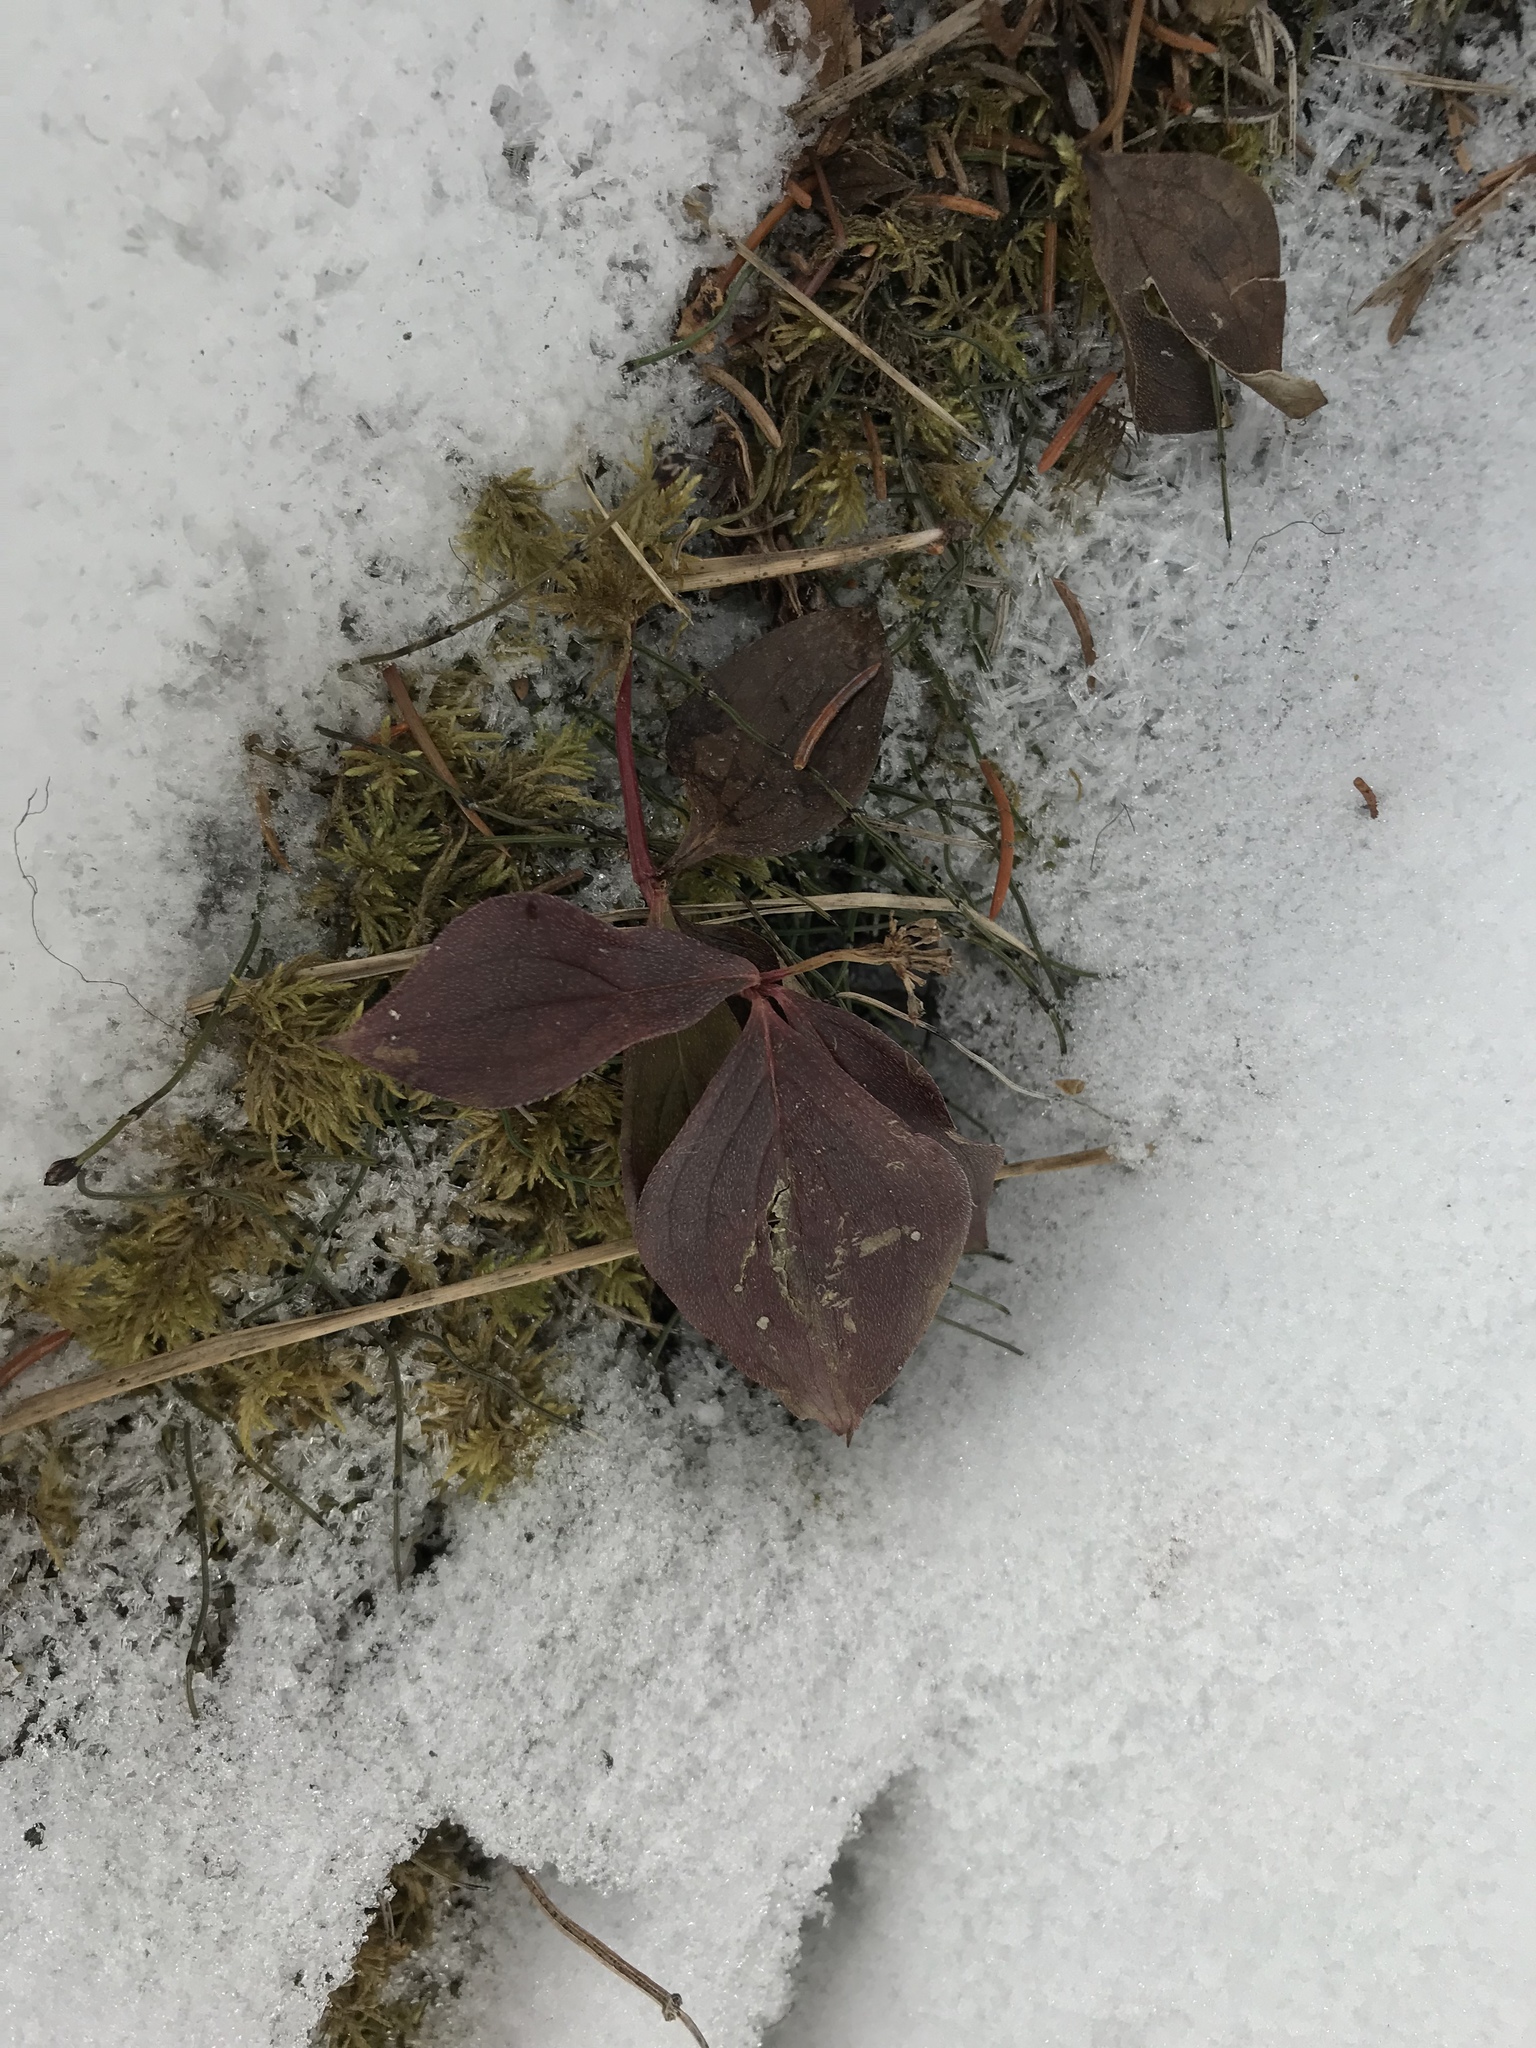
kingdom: Plantae
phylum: Tracheophyta
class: Magnoliopsida
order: Cornales
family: Cornaceae
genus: Cornus
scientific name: Cornus canadensis
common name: Creeping dogwood
